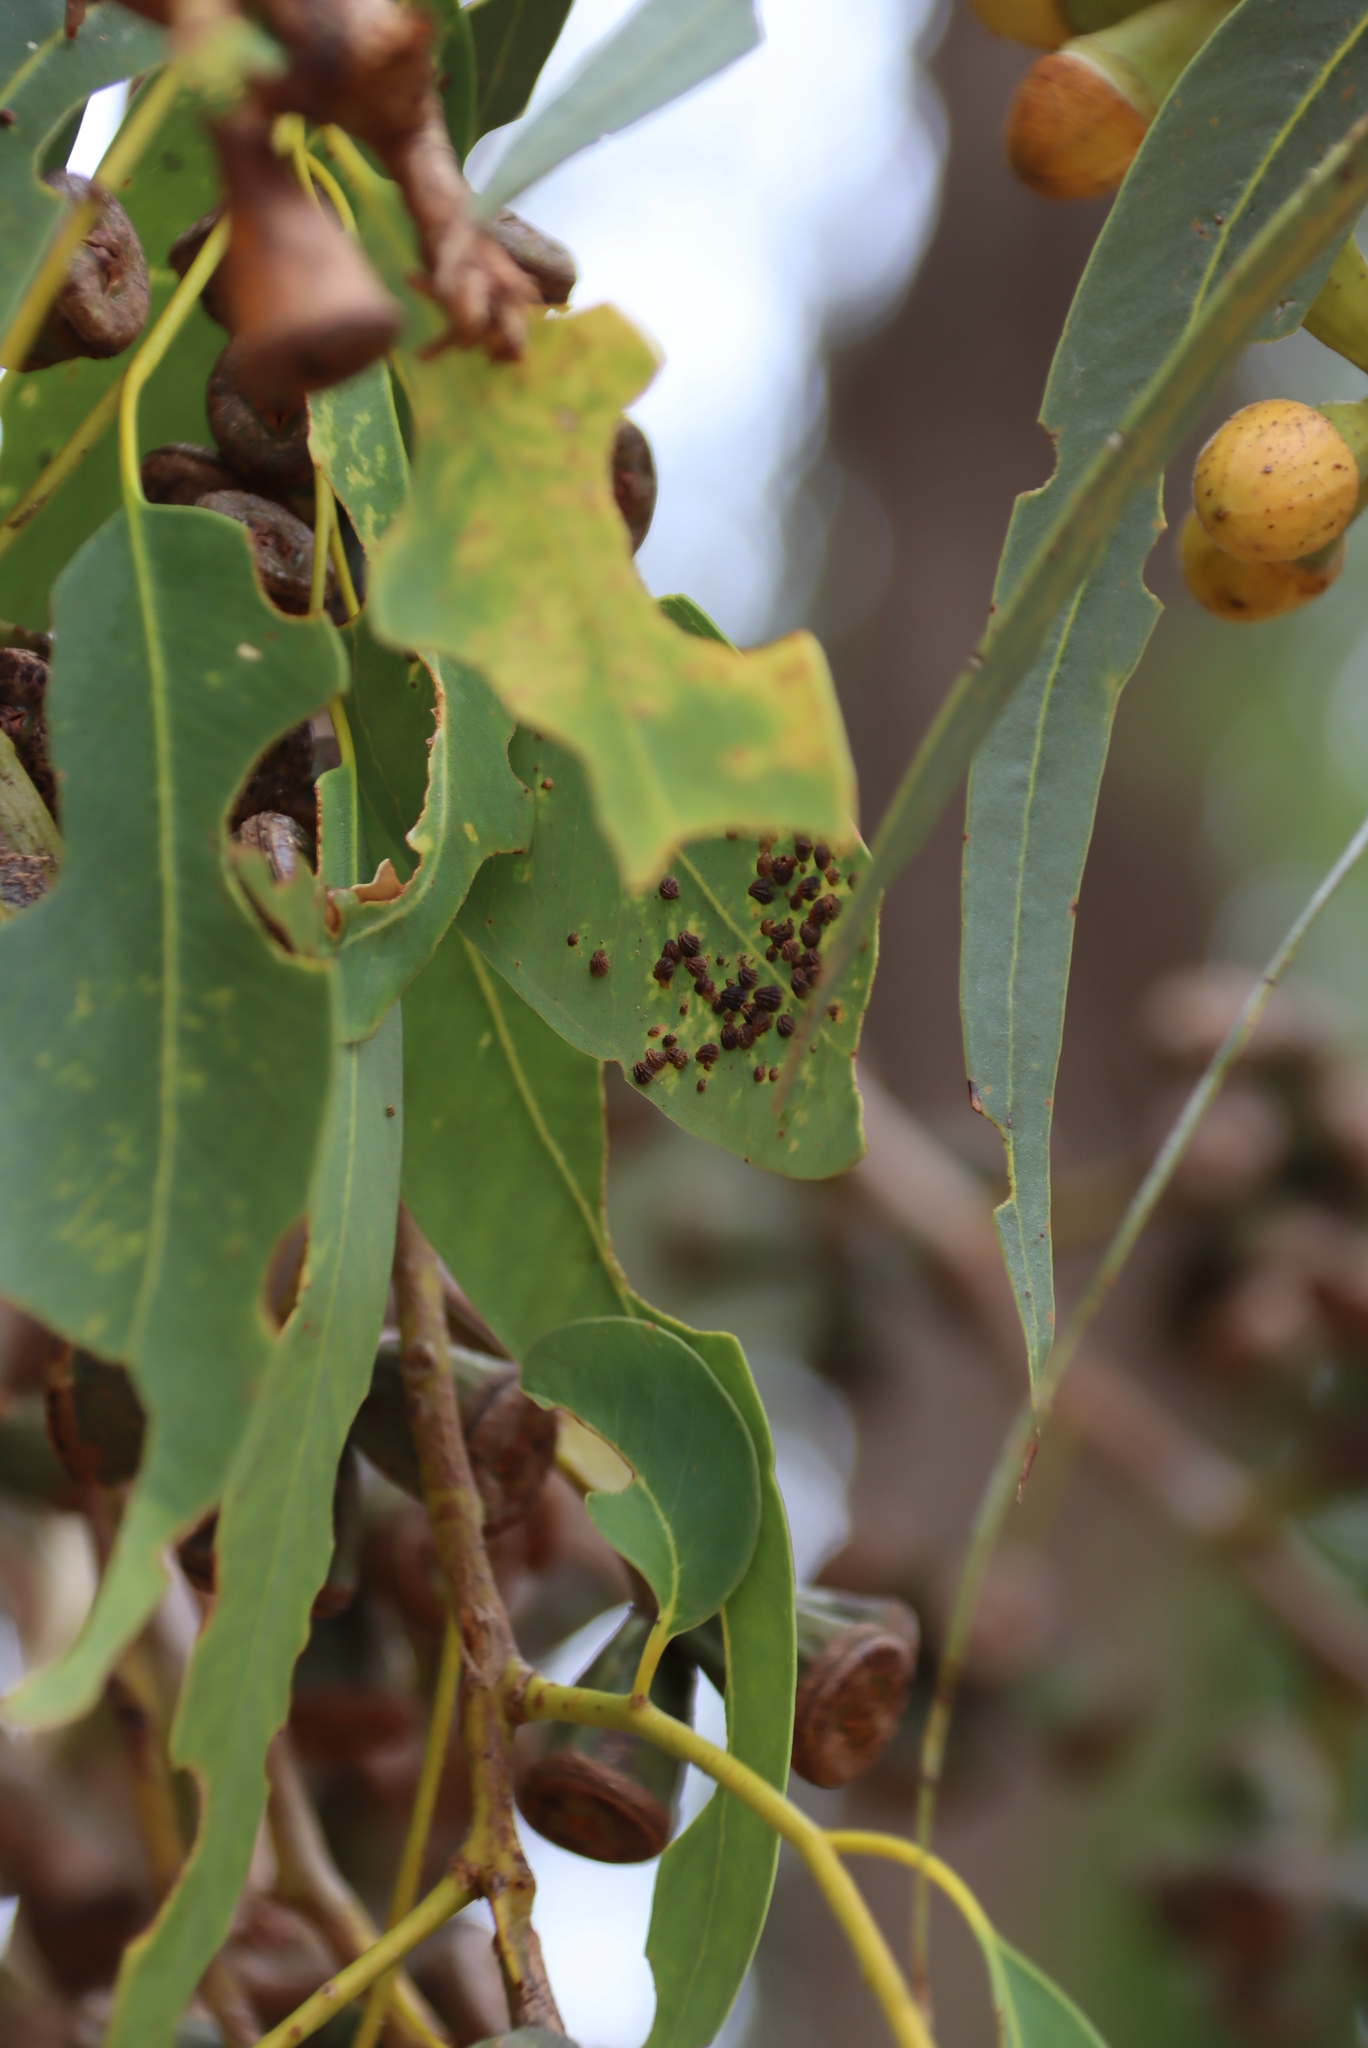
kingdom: Animalia
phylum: Arthropoda
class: Insecta
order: Hemiptera
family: Aphalaridae
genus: Spondyliaspis
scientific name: Spondyliaspis plicatuloides
